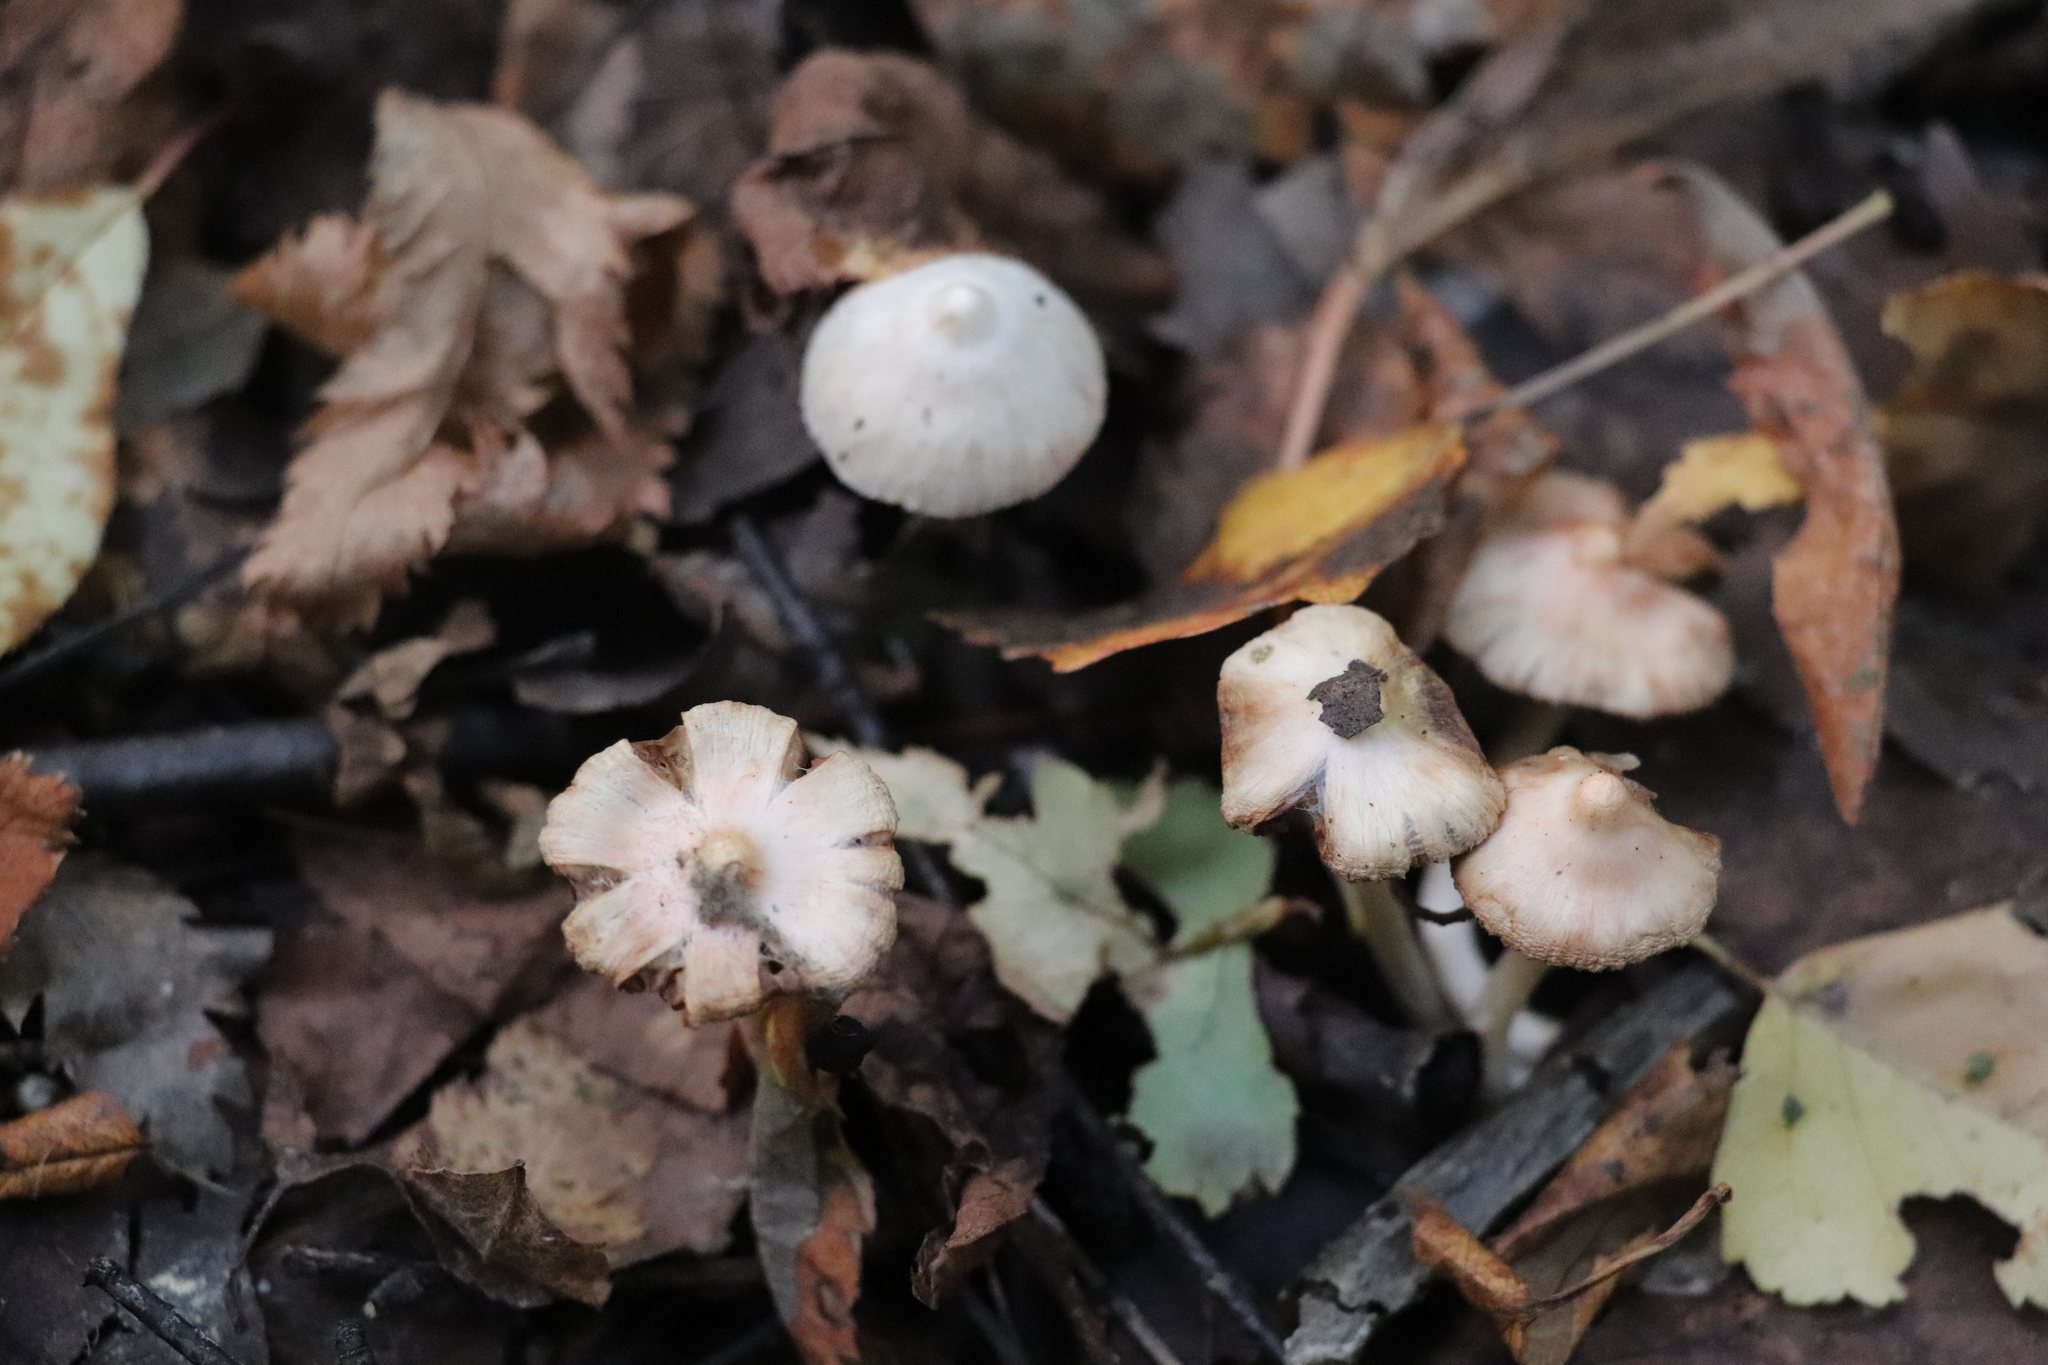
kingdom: Fungi
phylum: Basidiomycota
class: Agaricomycetes
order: Agaricales
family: Inocybaceae
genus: Inocybe
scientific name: Inocybe geophylla
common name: White fibrecap
